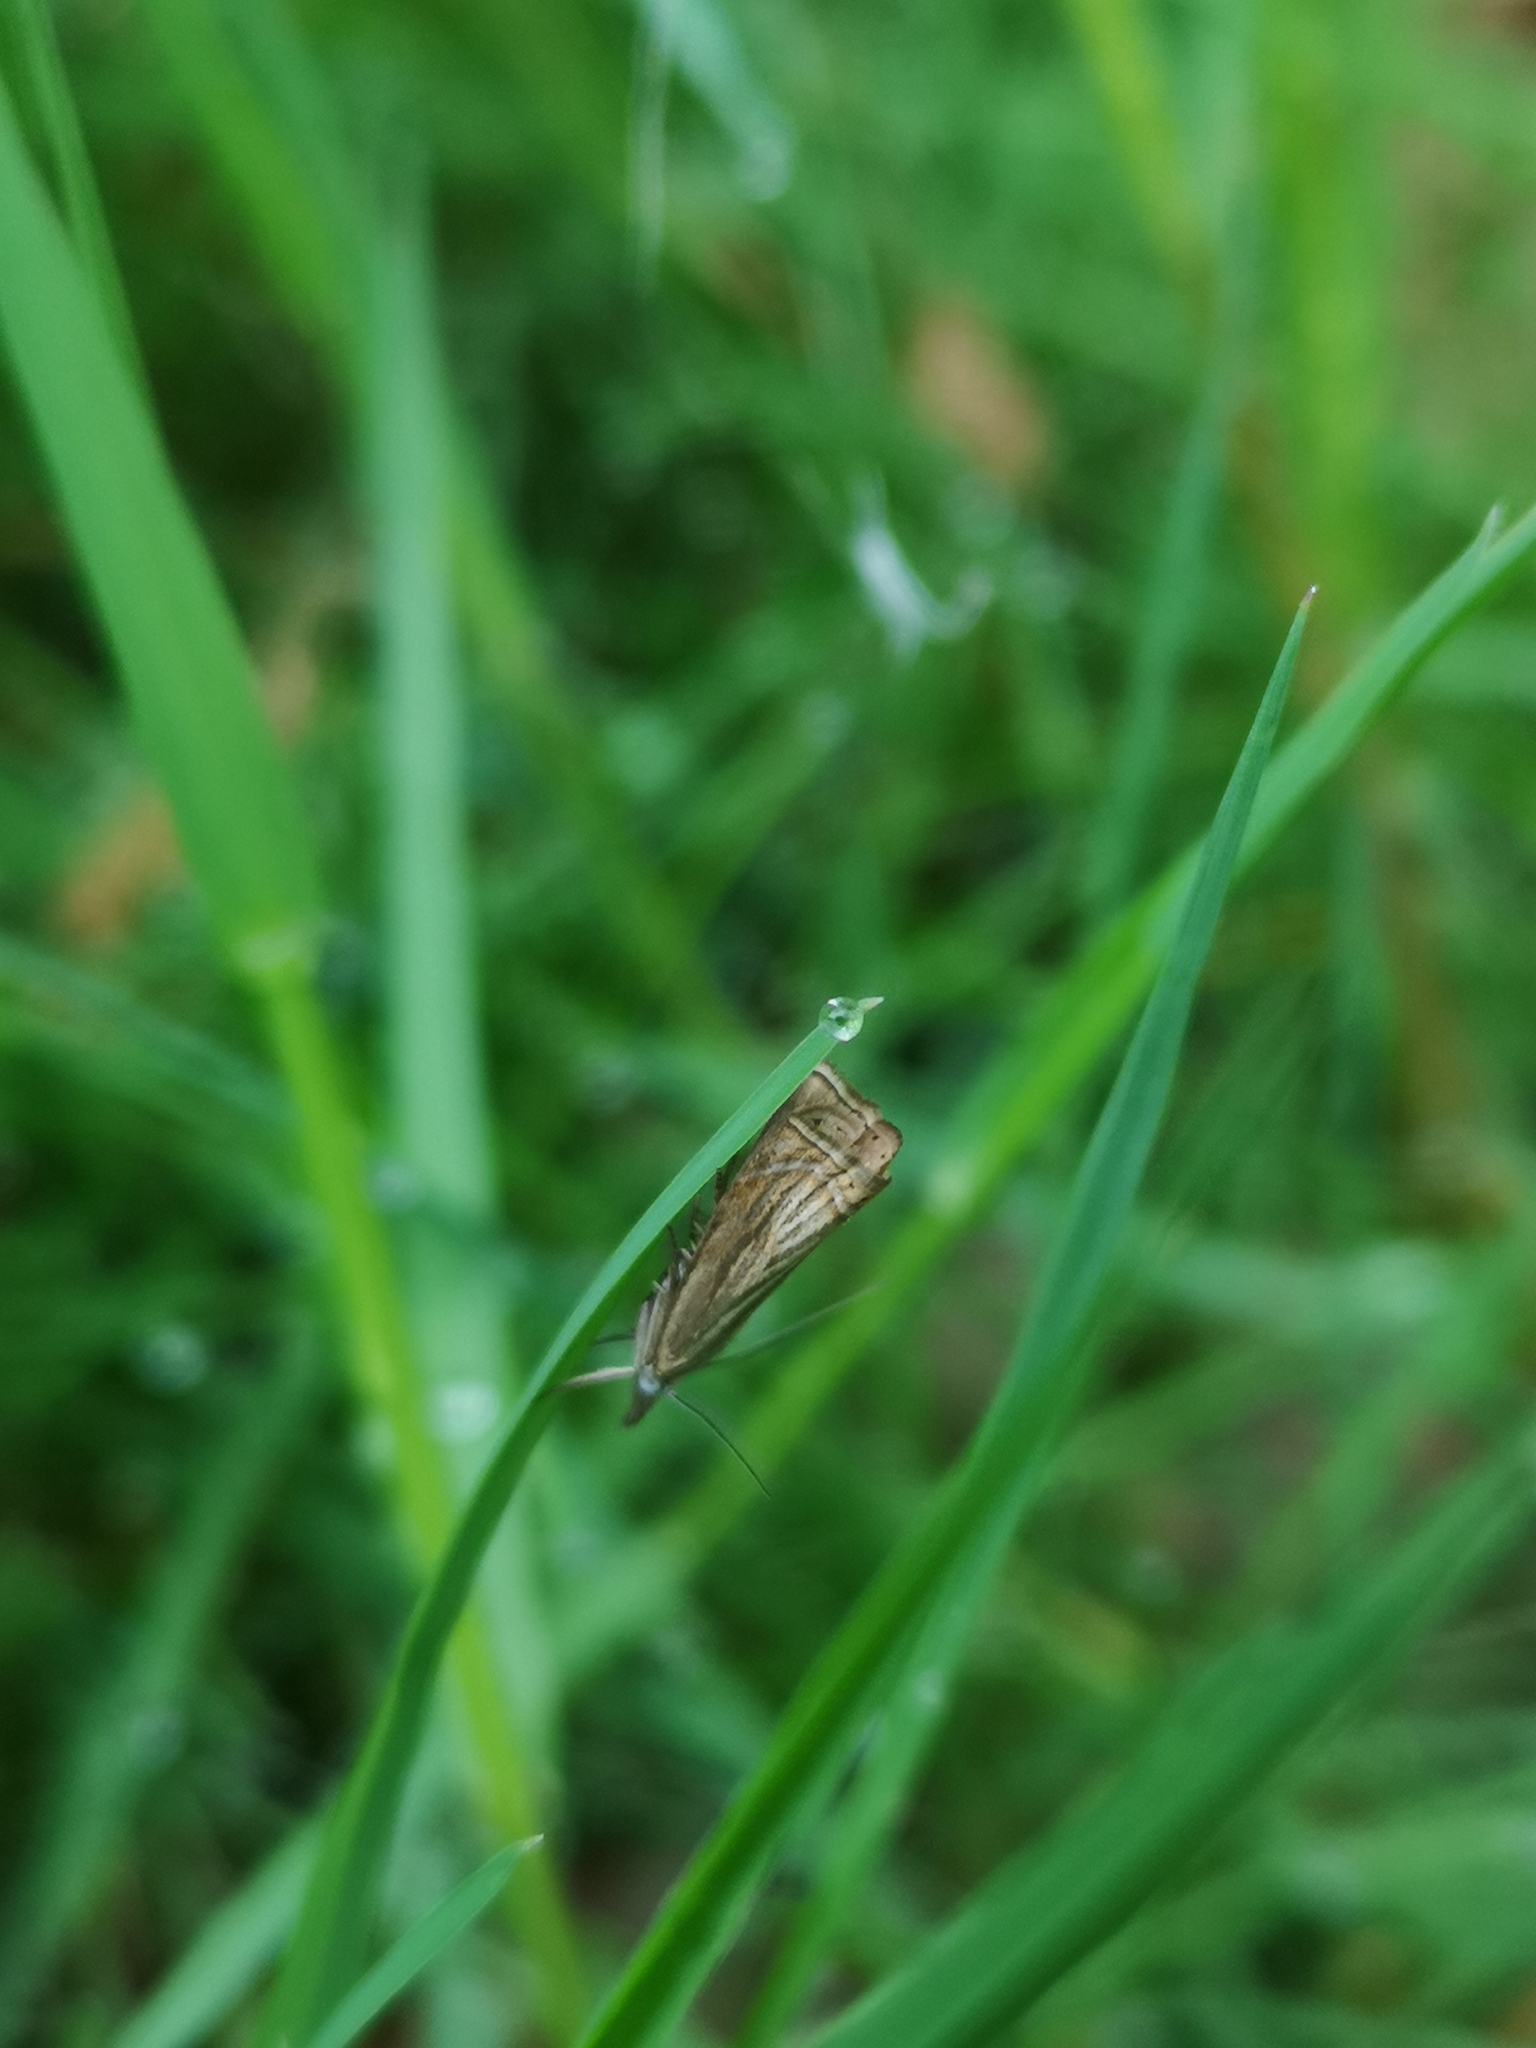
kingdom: Animalia
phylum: Arthropoda
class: Insecta
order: Lepidoptera
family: Crambidae
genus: Chrysoteuchia
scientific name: Chrysoteuchia culmella
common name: Garden grass-veneer
